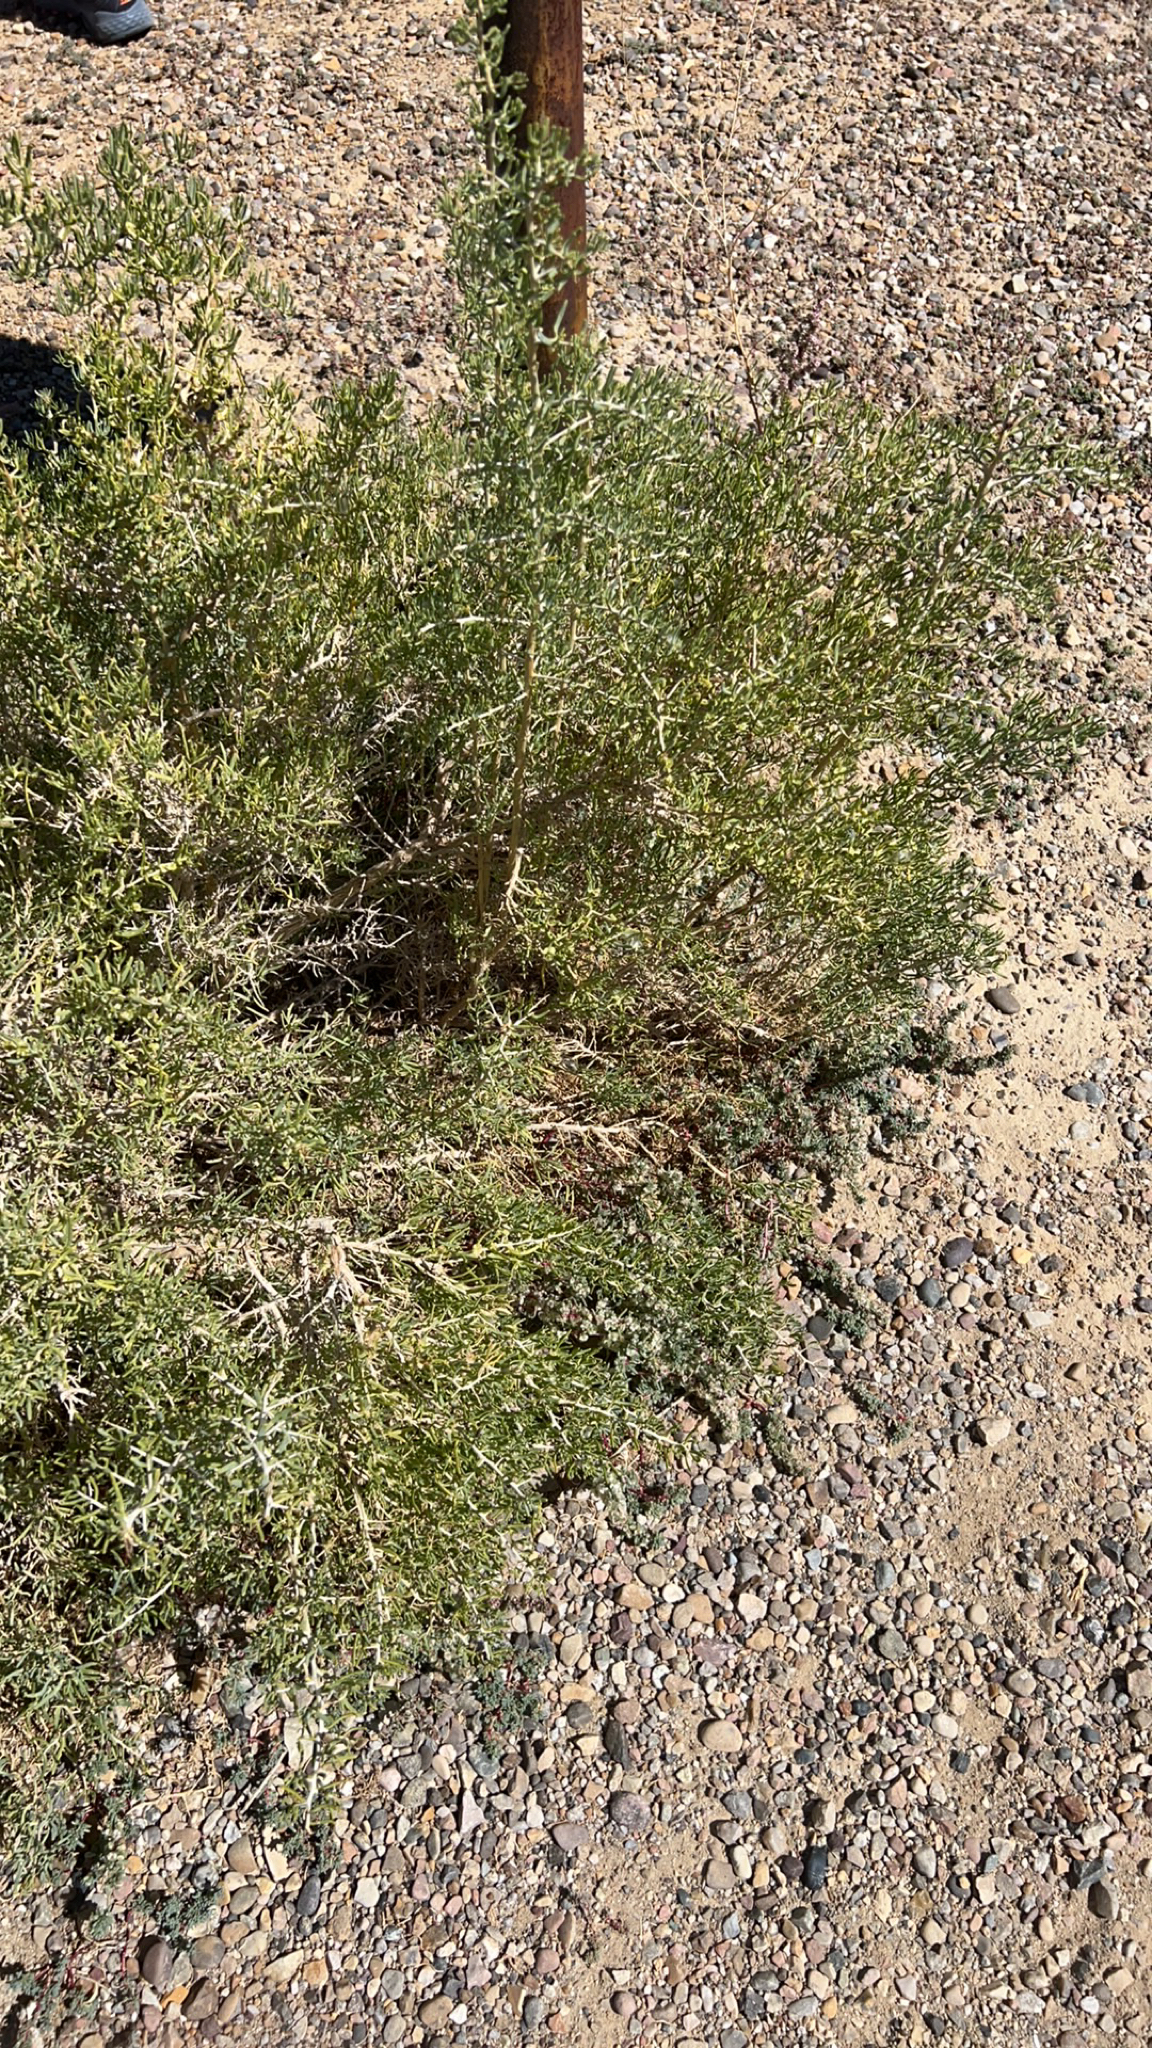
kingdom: Plantae
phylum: Tracheophyta
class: Magnoliopsida
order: Caryophyllales
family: Sarcobataceae
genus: Sarcobatus
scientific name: Sarcobatus vermiculatus
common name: Greasewood
